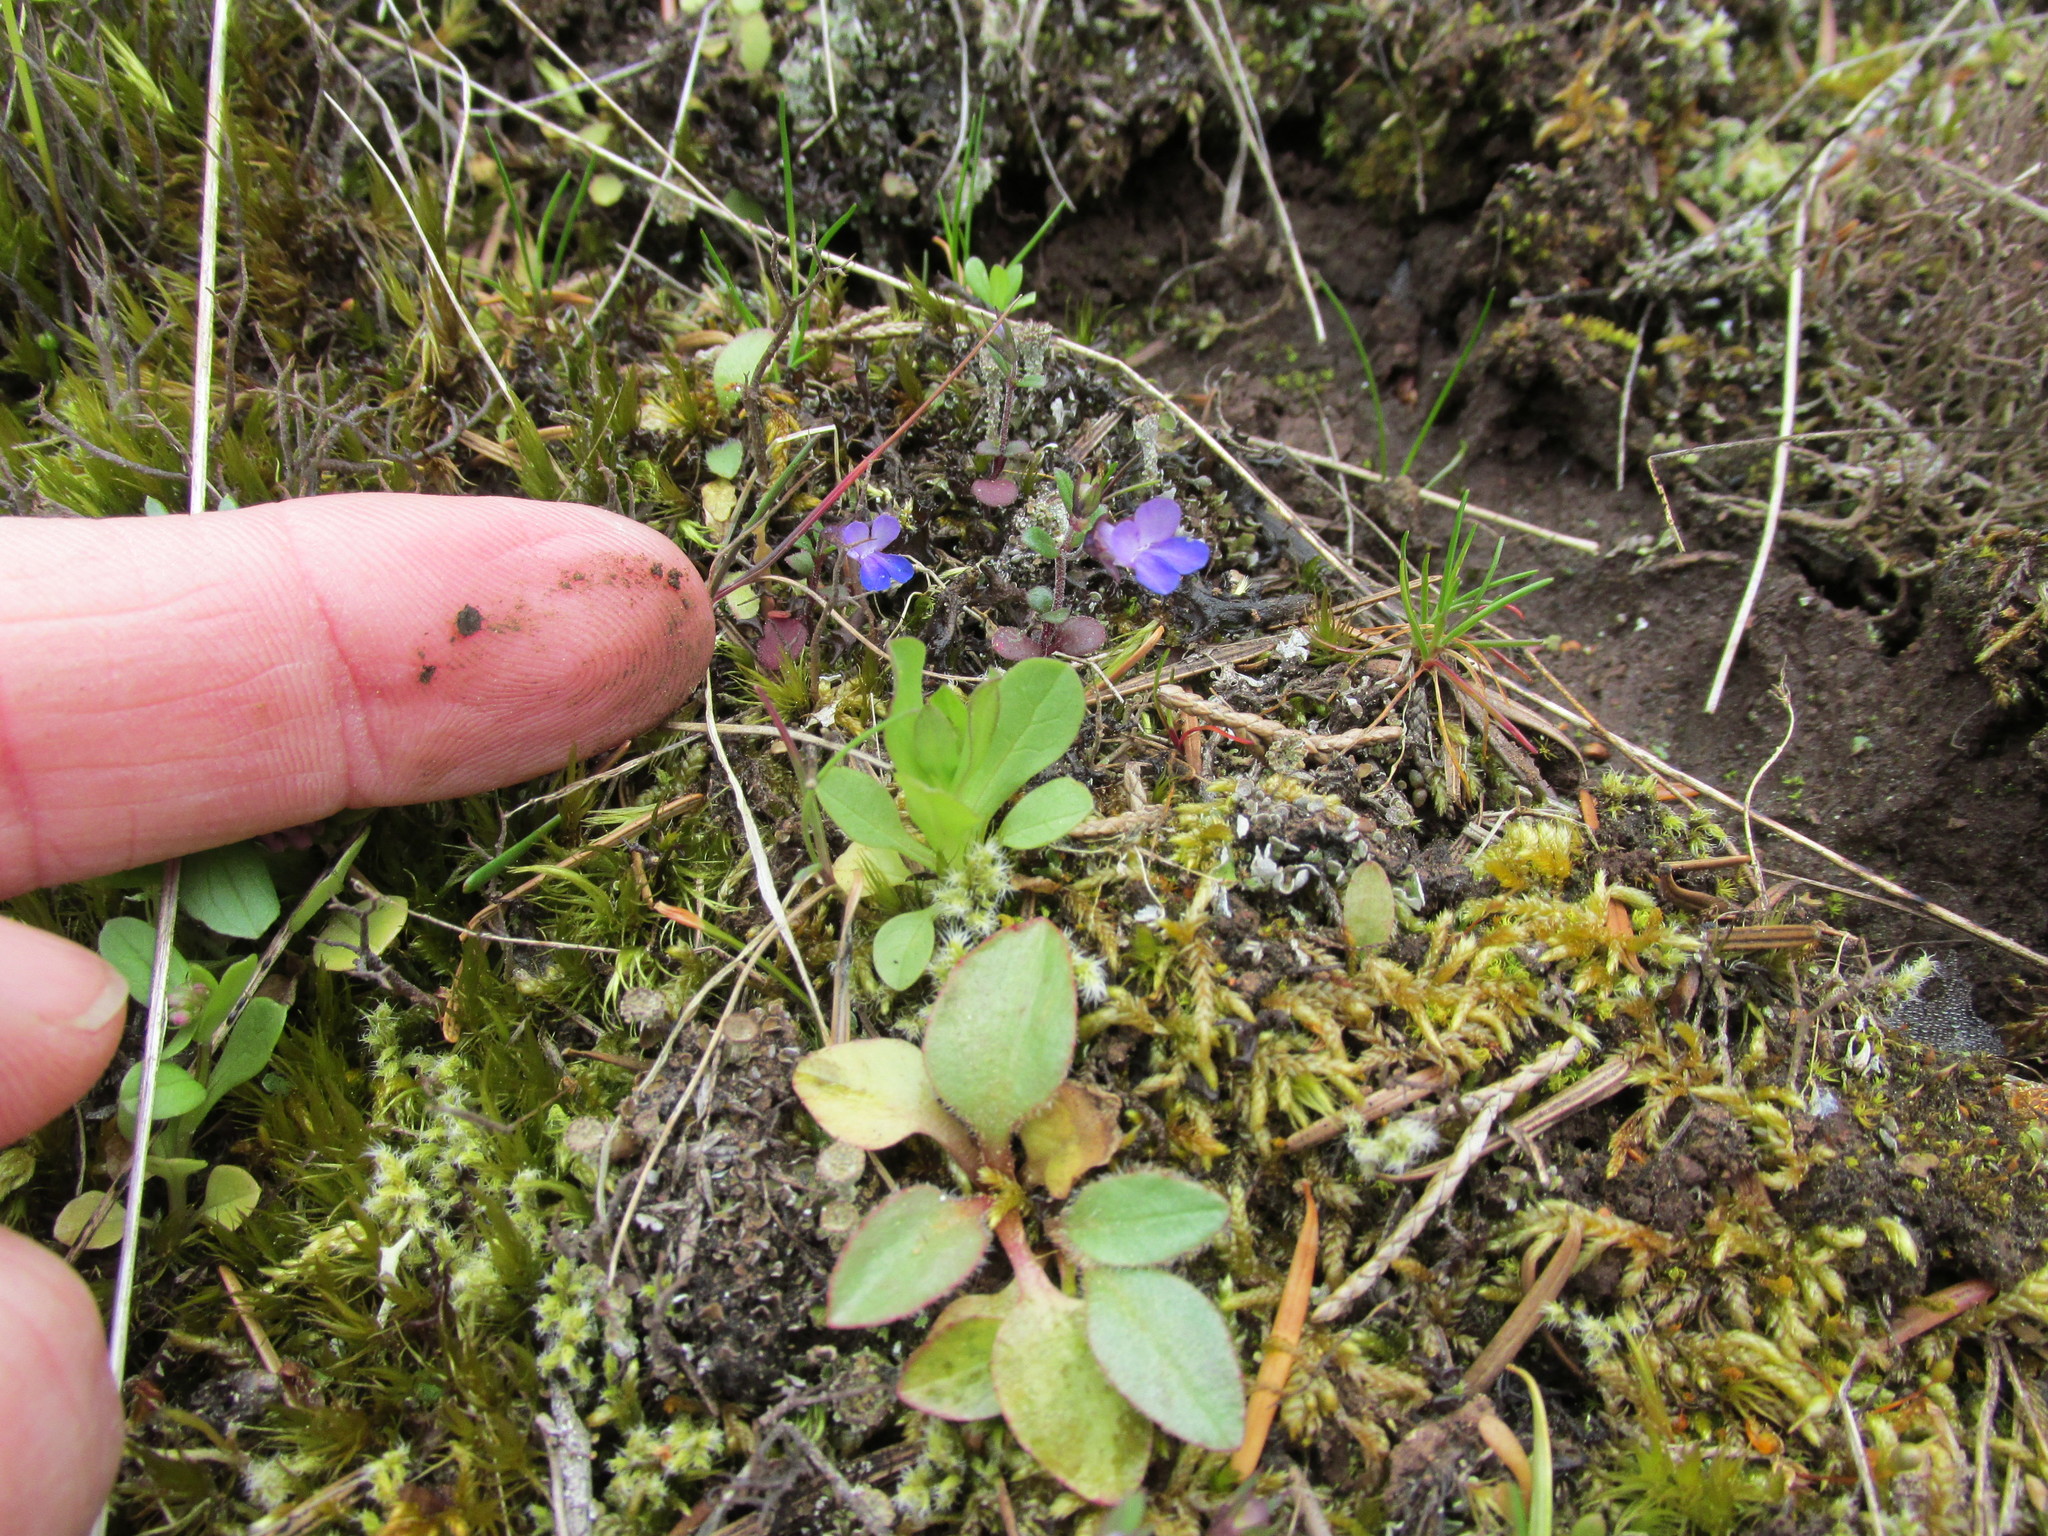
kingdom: Plantae
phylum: Tracheophyta
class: Magnoliopsida
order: Lamiales
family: Plantaginaceae
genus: Collinsia
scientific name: Collinsia parviflora
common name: Blue-lips
